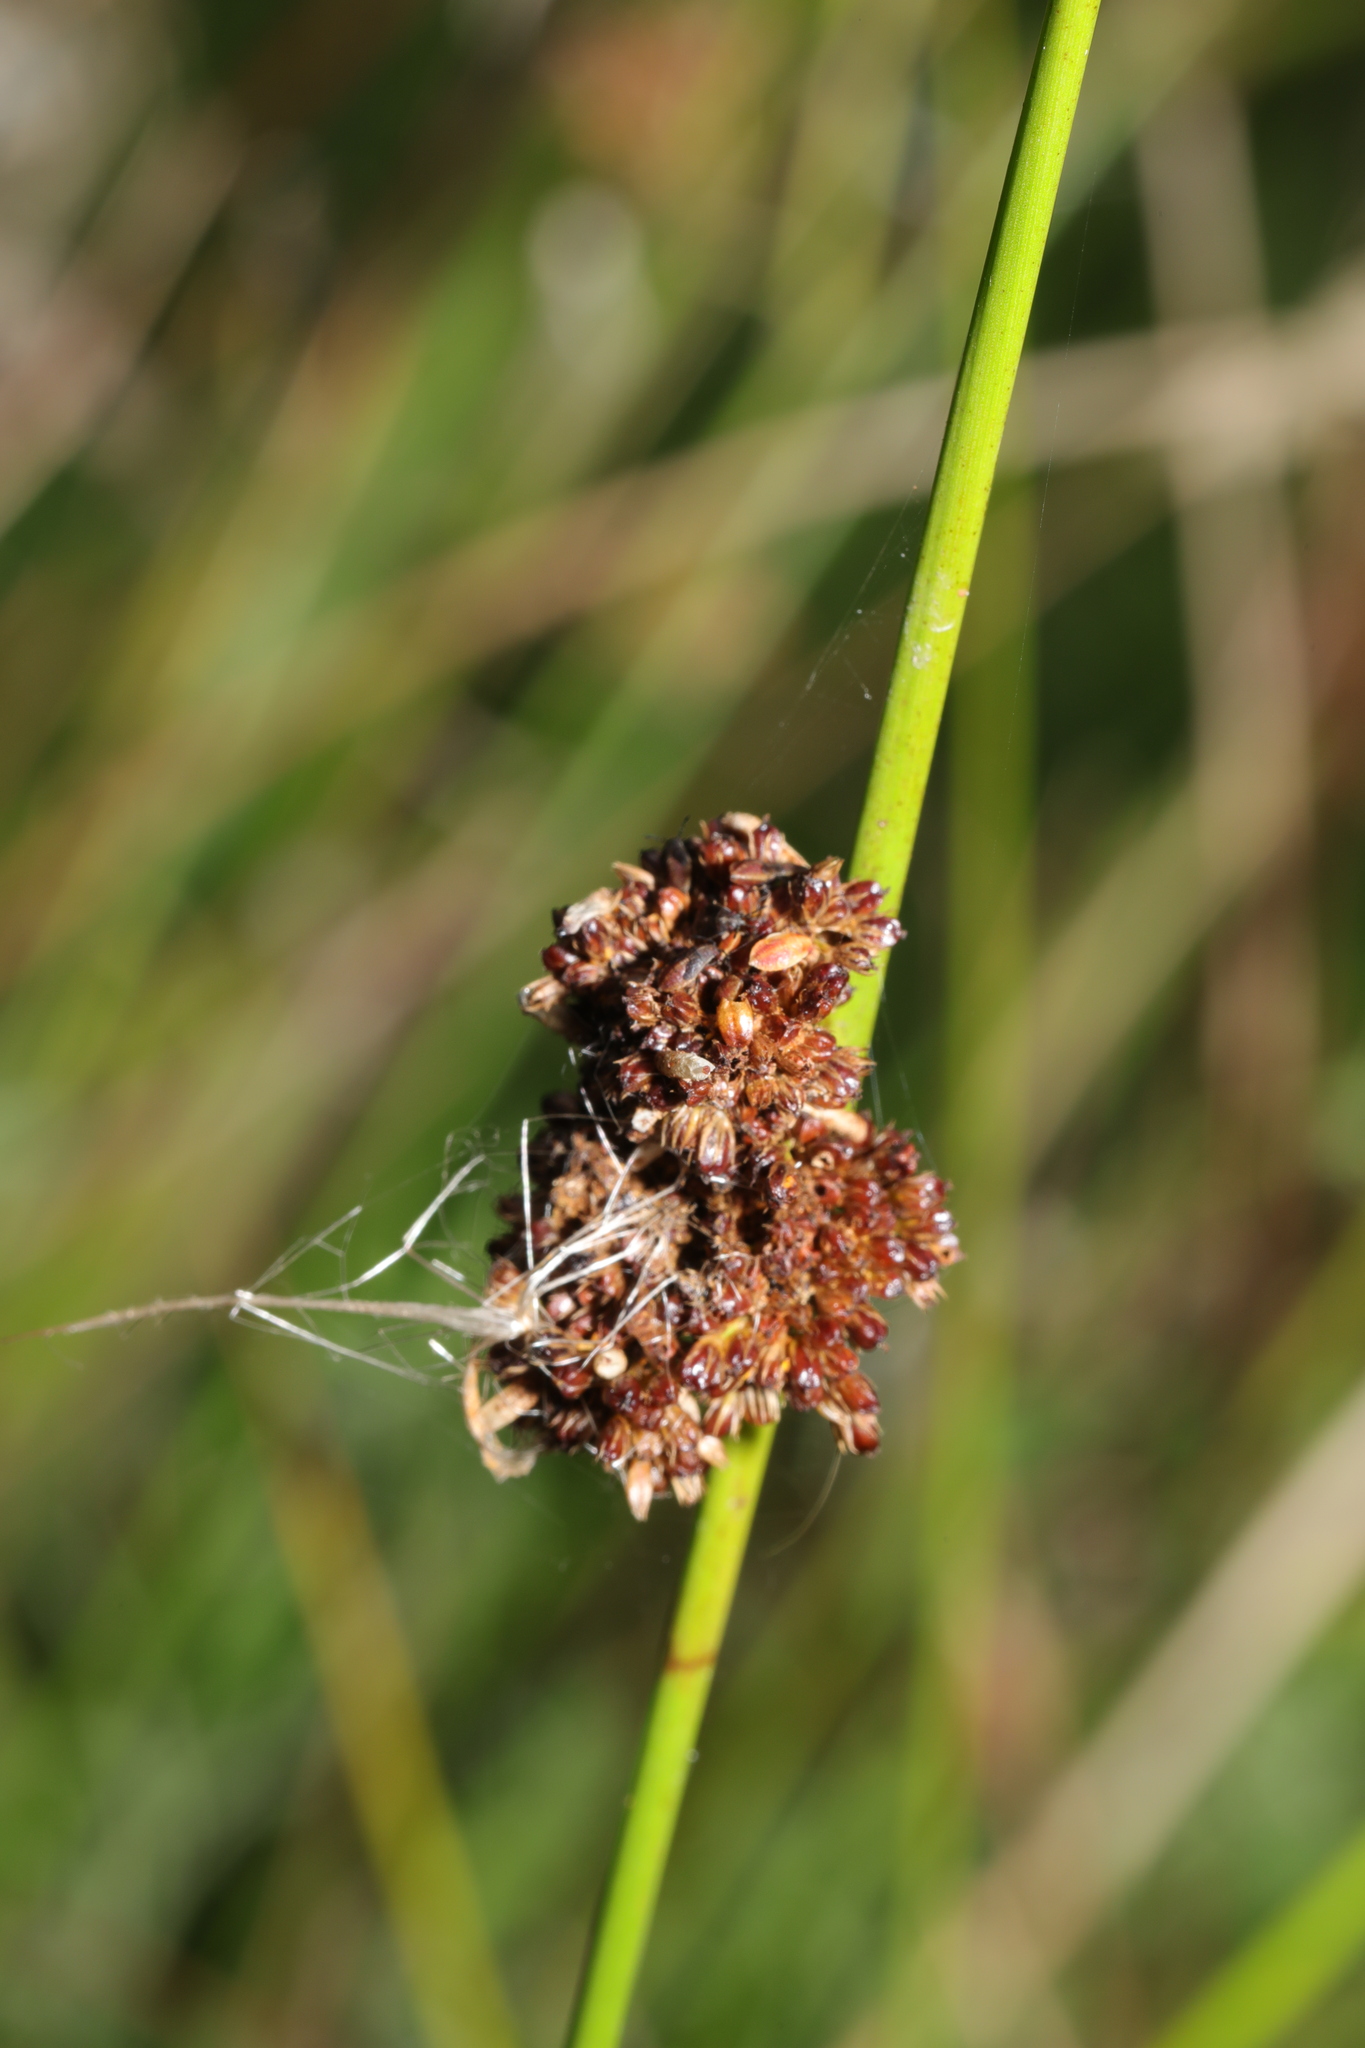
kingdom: Plantae
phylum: Tracheophyta
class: Liliopsida
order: Poales
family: Juncaceae
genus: Juncus
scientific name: Juncus effusus
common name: Soft rush
